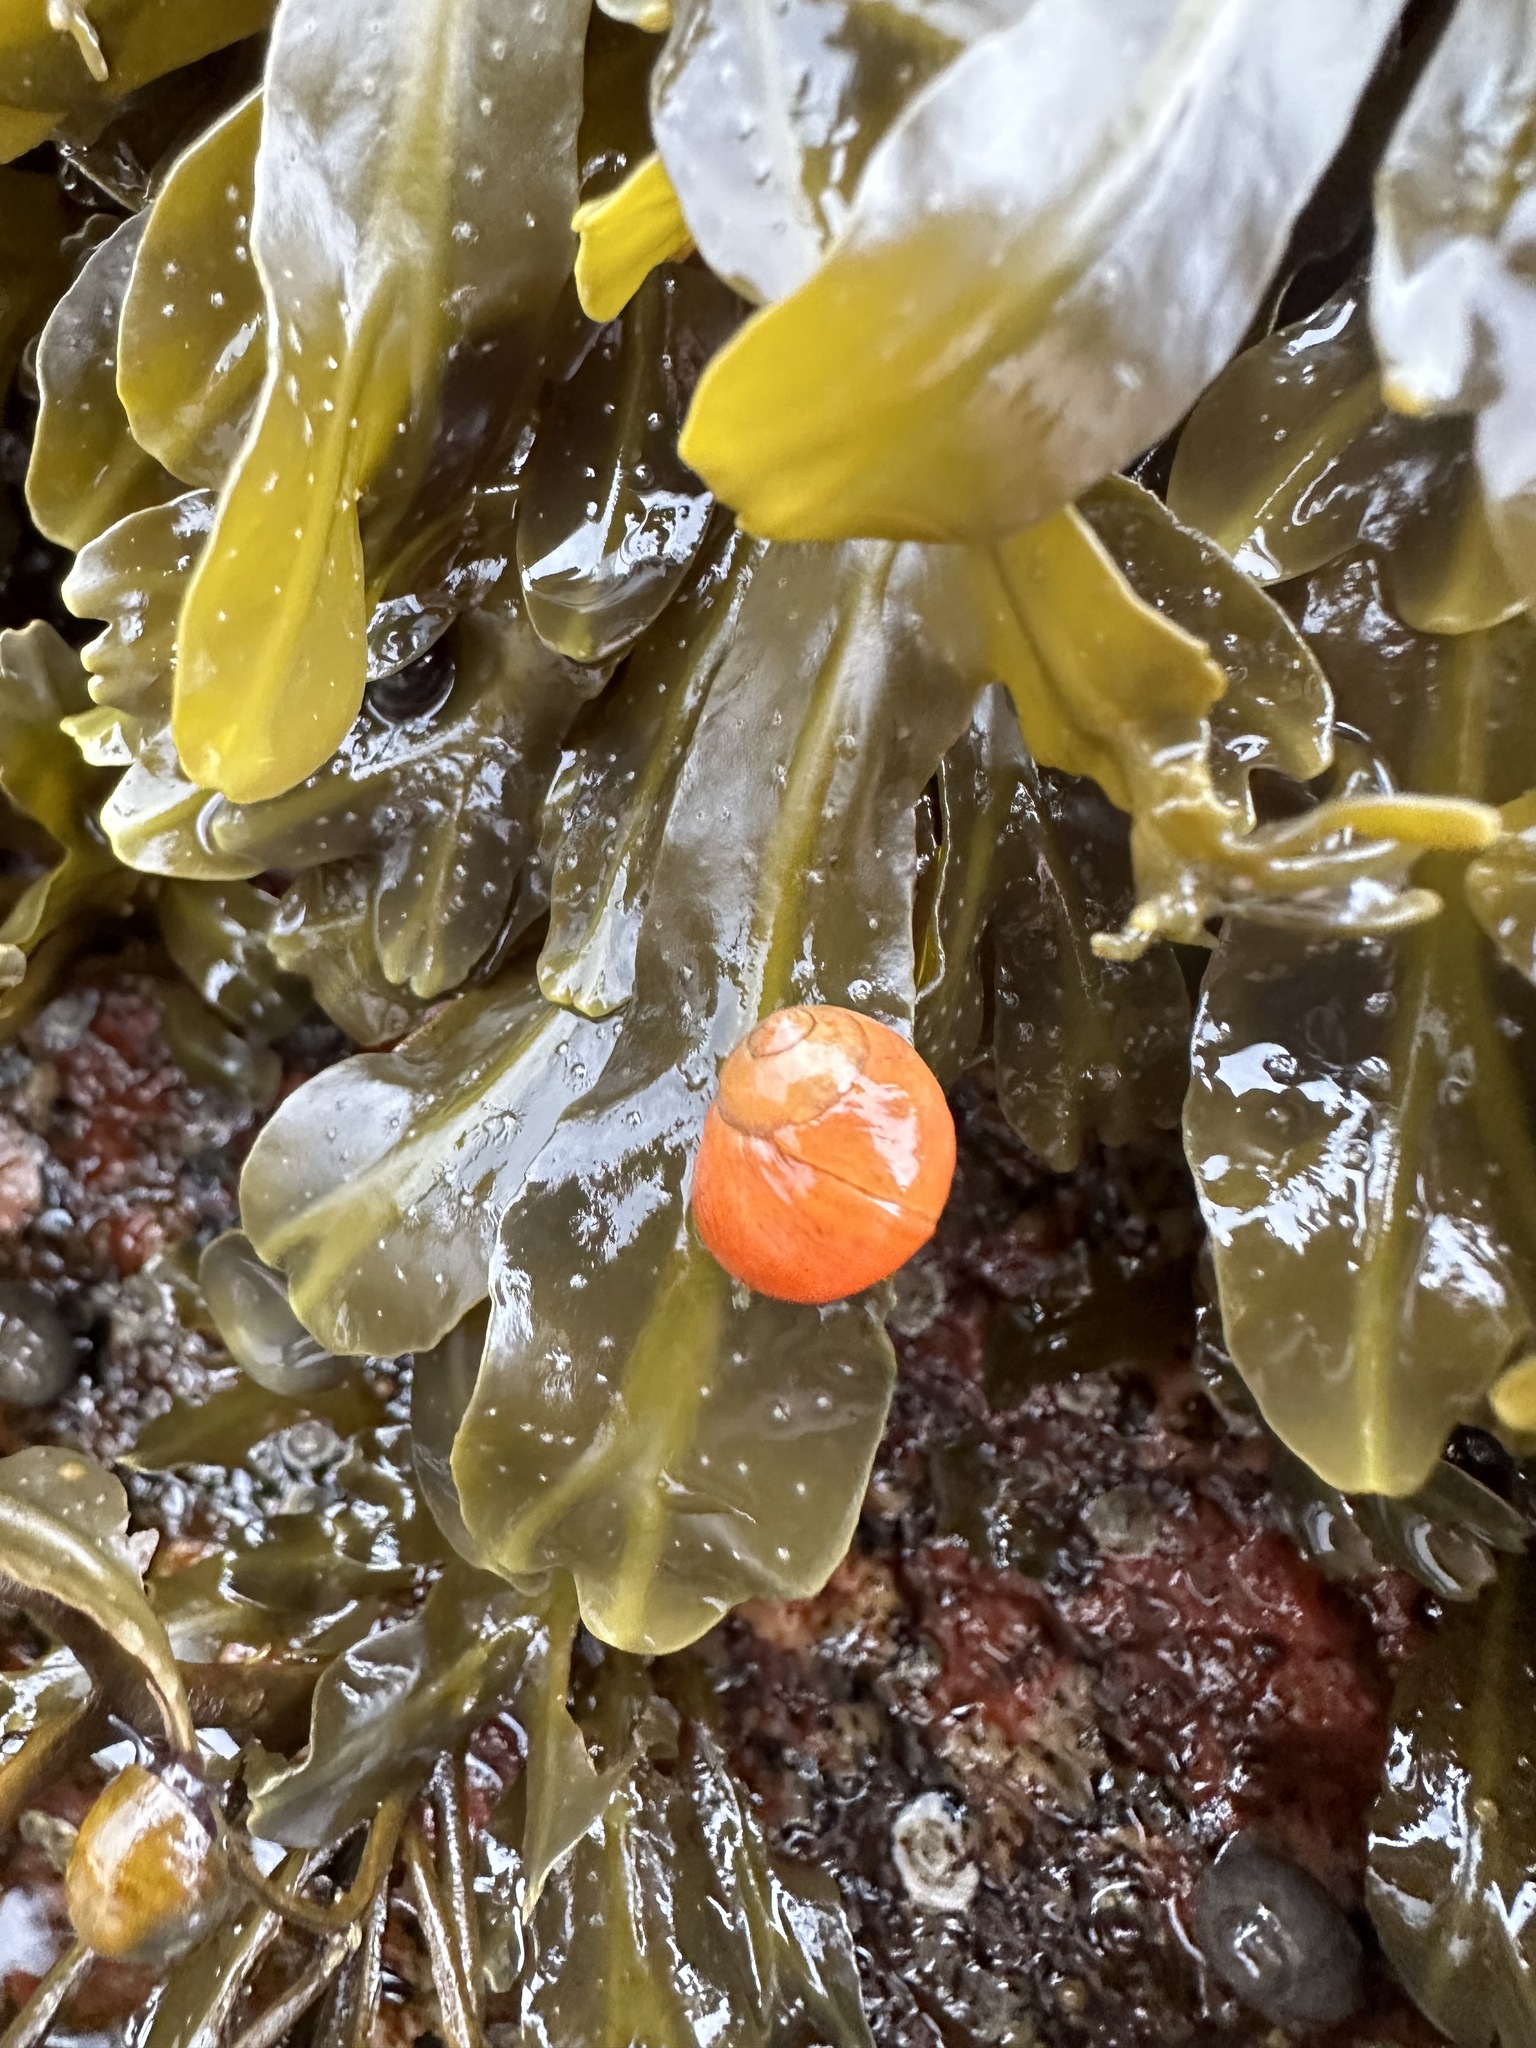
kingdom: Animalia
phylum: Mollusca
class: Gastropoda
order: Littorinimorpha
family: Littorinidae
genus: Littorina
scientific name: Littorina obtusata
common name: Flat periwinkle
